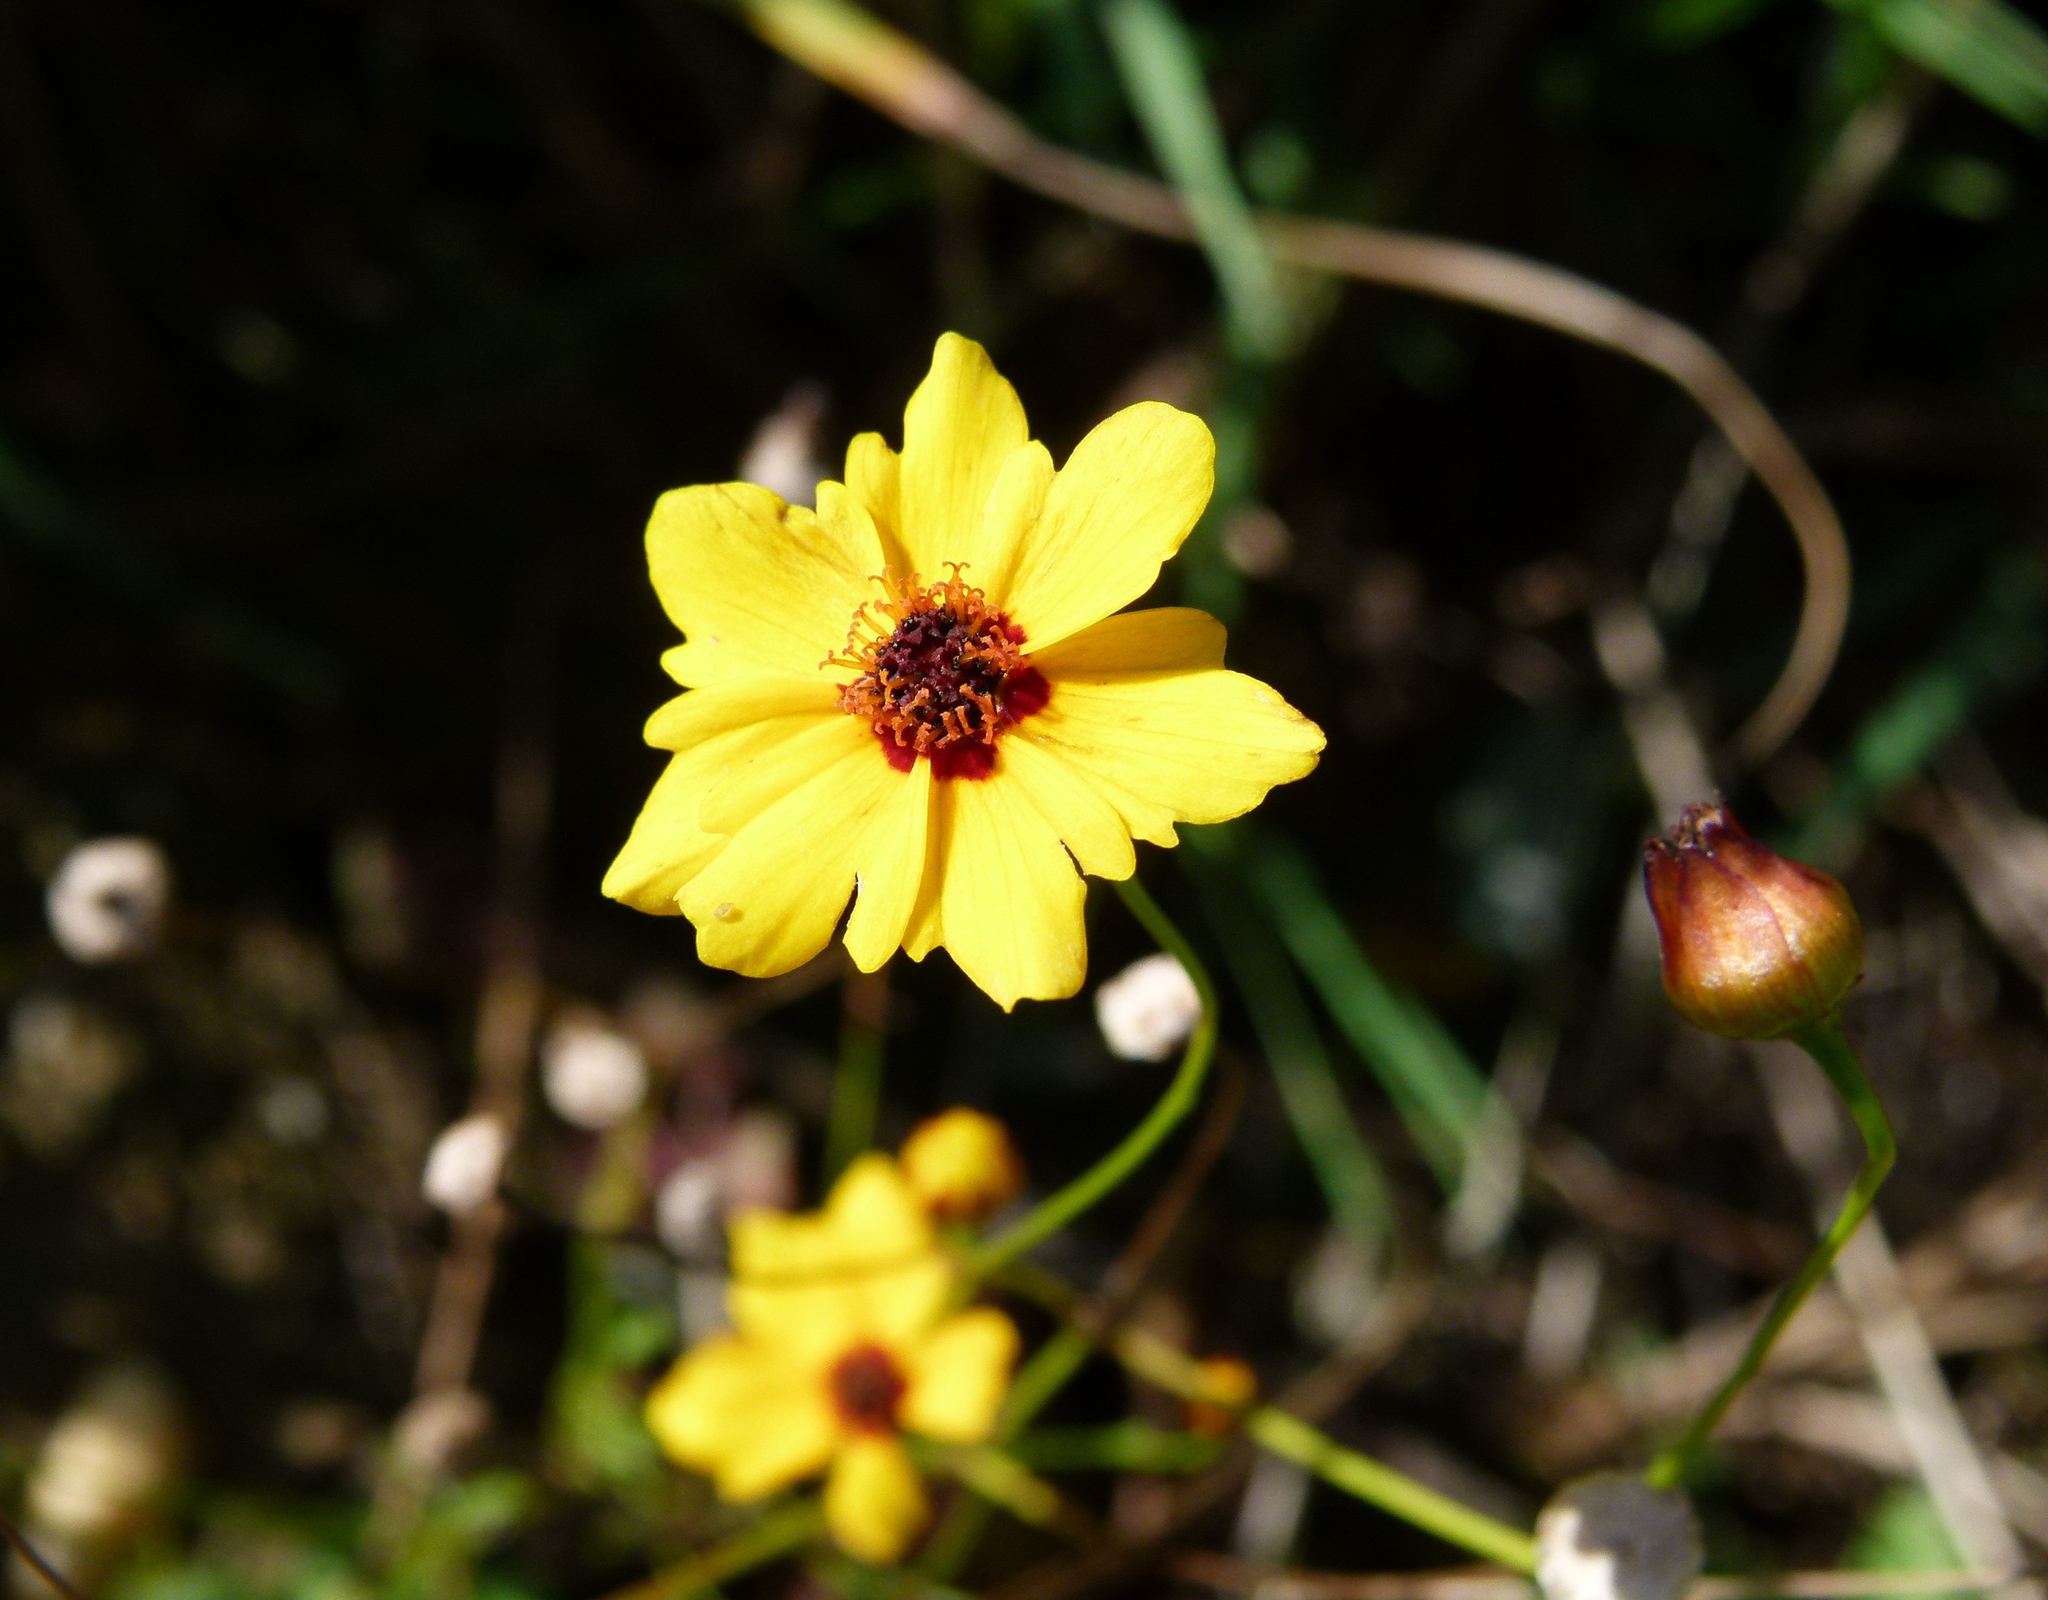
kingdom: Plantae
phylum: Tracheophyta
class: Magnoliopsida
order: Asterales
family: Asteraceae
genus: Coreopsis
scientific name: Coreopsis tinctoria
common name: Garden tickseed
